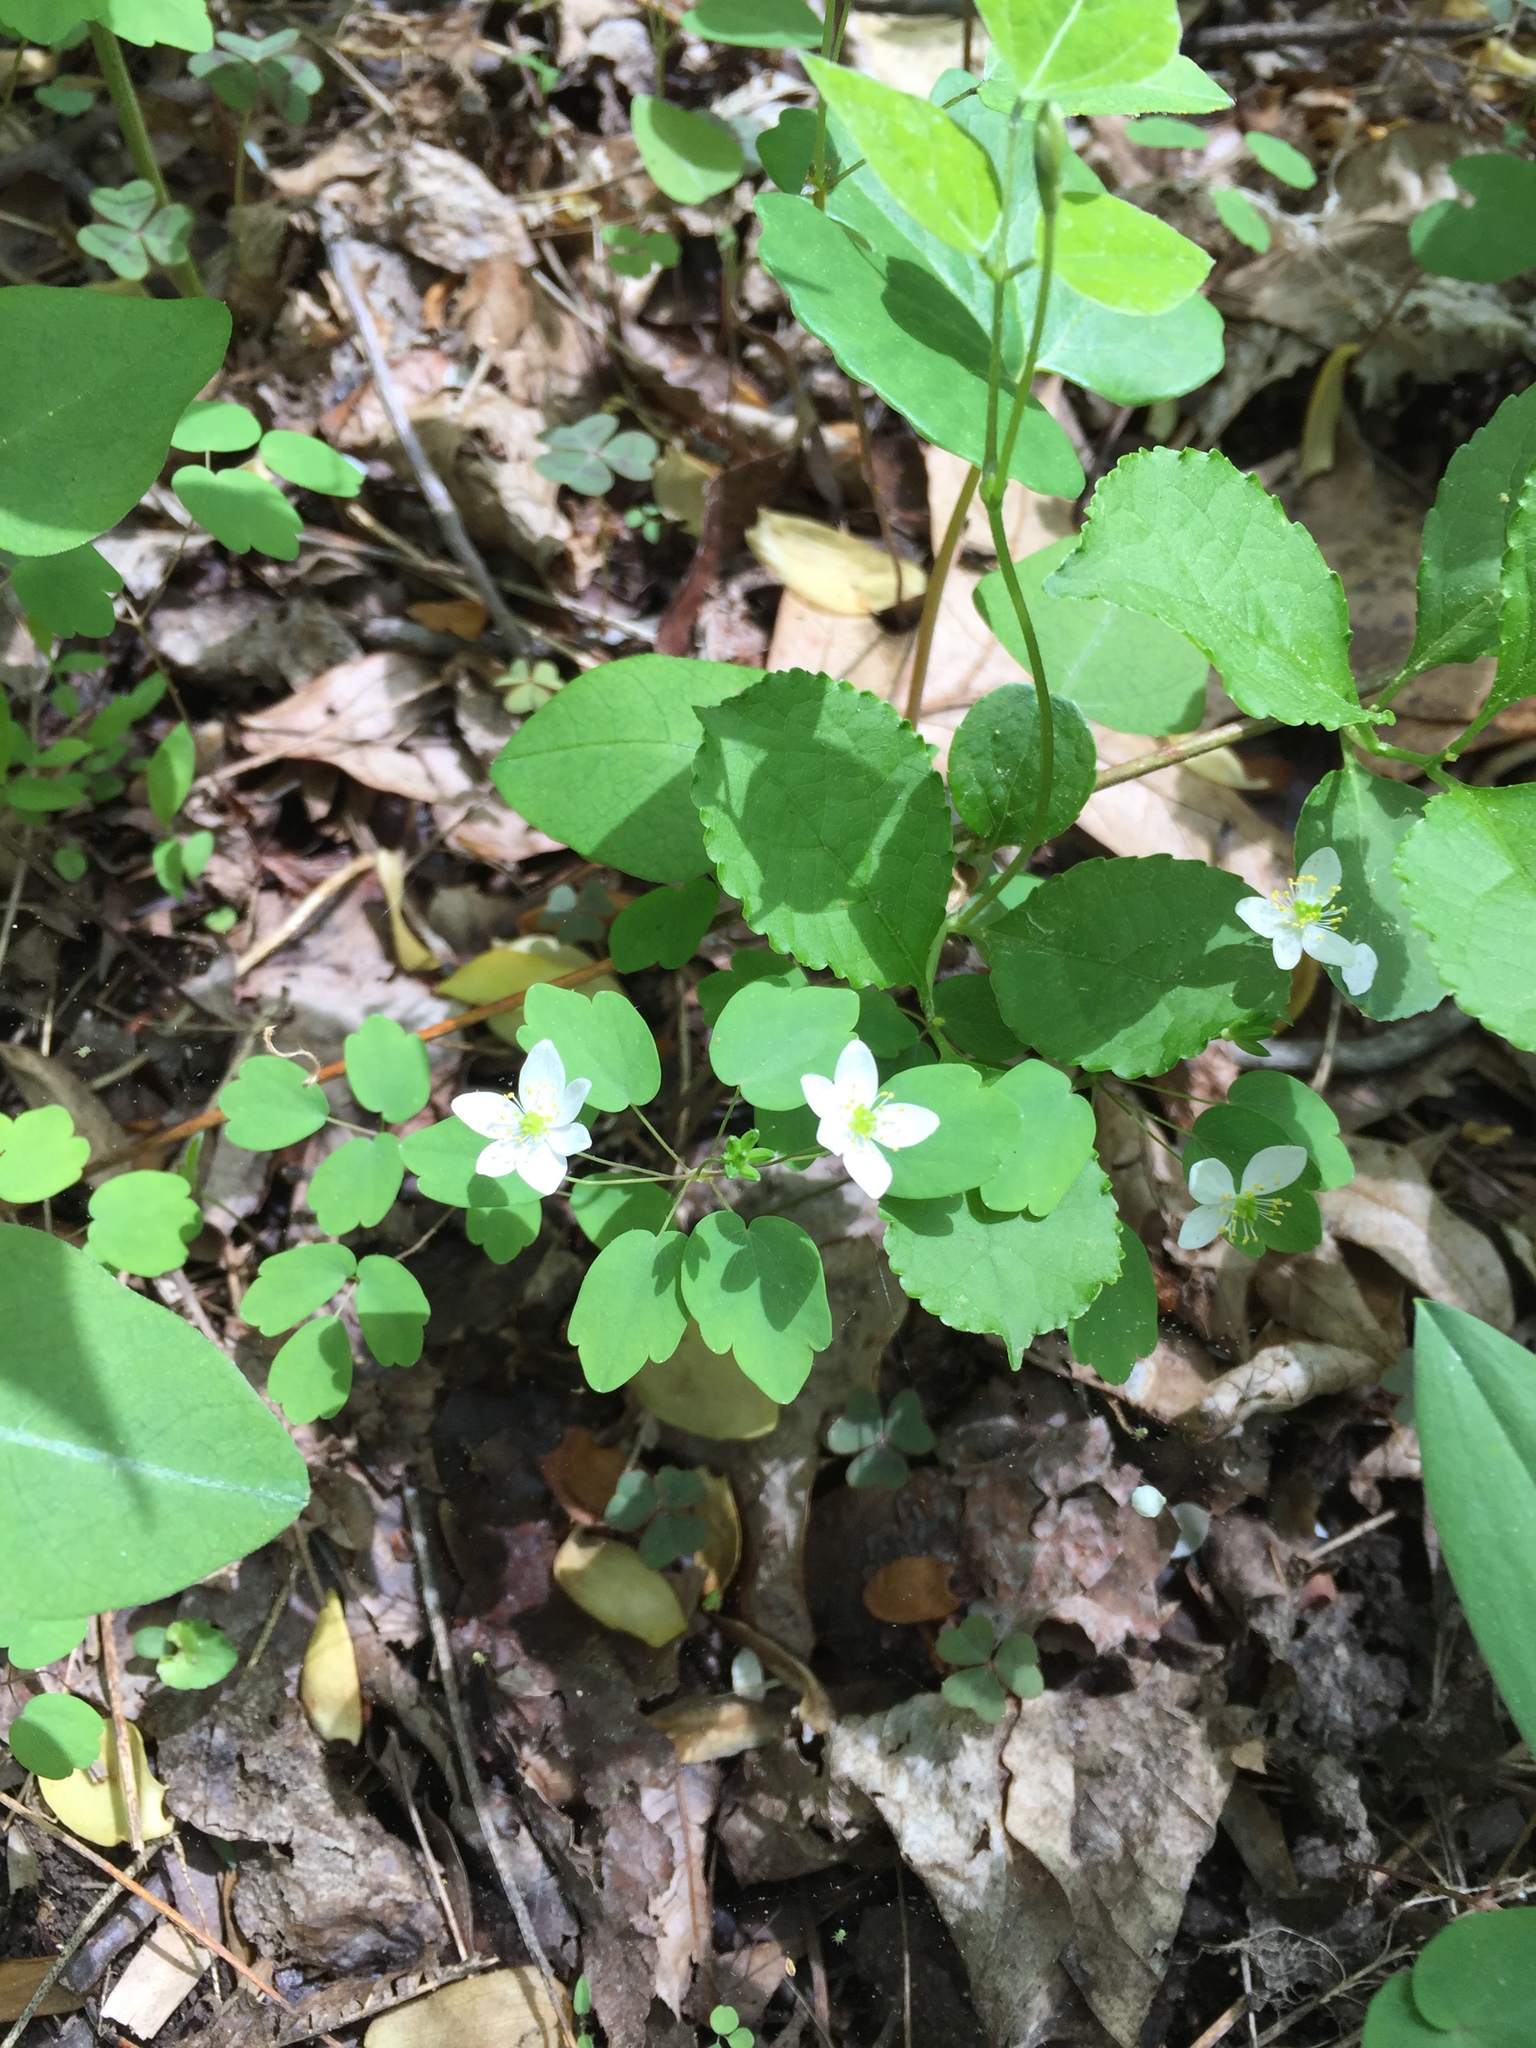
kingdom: Plantae
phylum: Tracheophyta
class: Magnoliopsida
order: Ranunculales
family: Ranunculaceae
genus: Thalictrum
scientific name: Thalictrum thalictroides
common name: Rue-anemone
